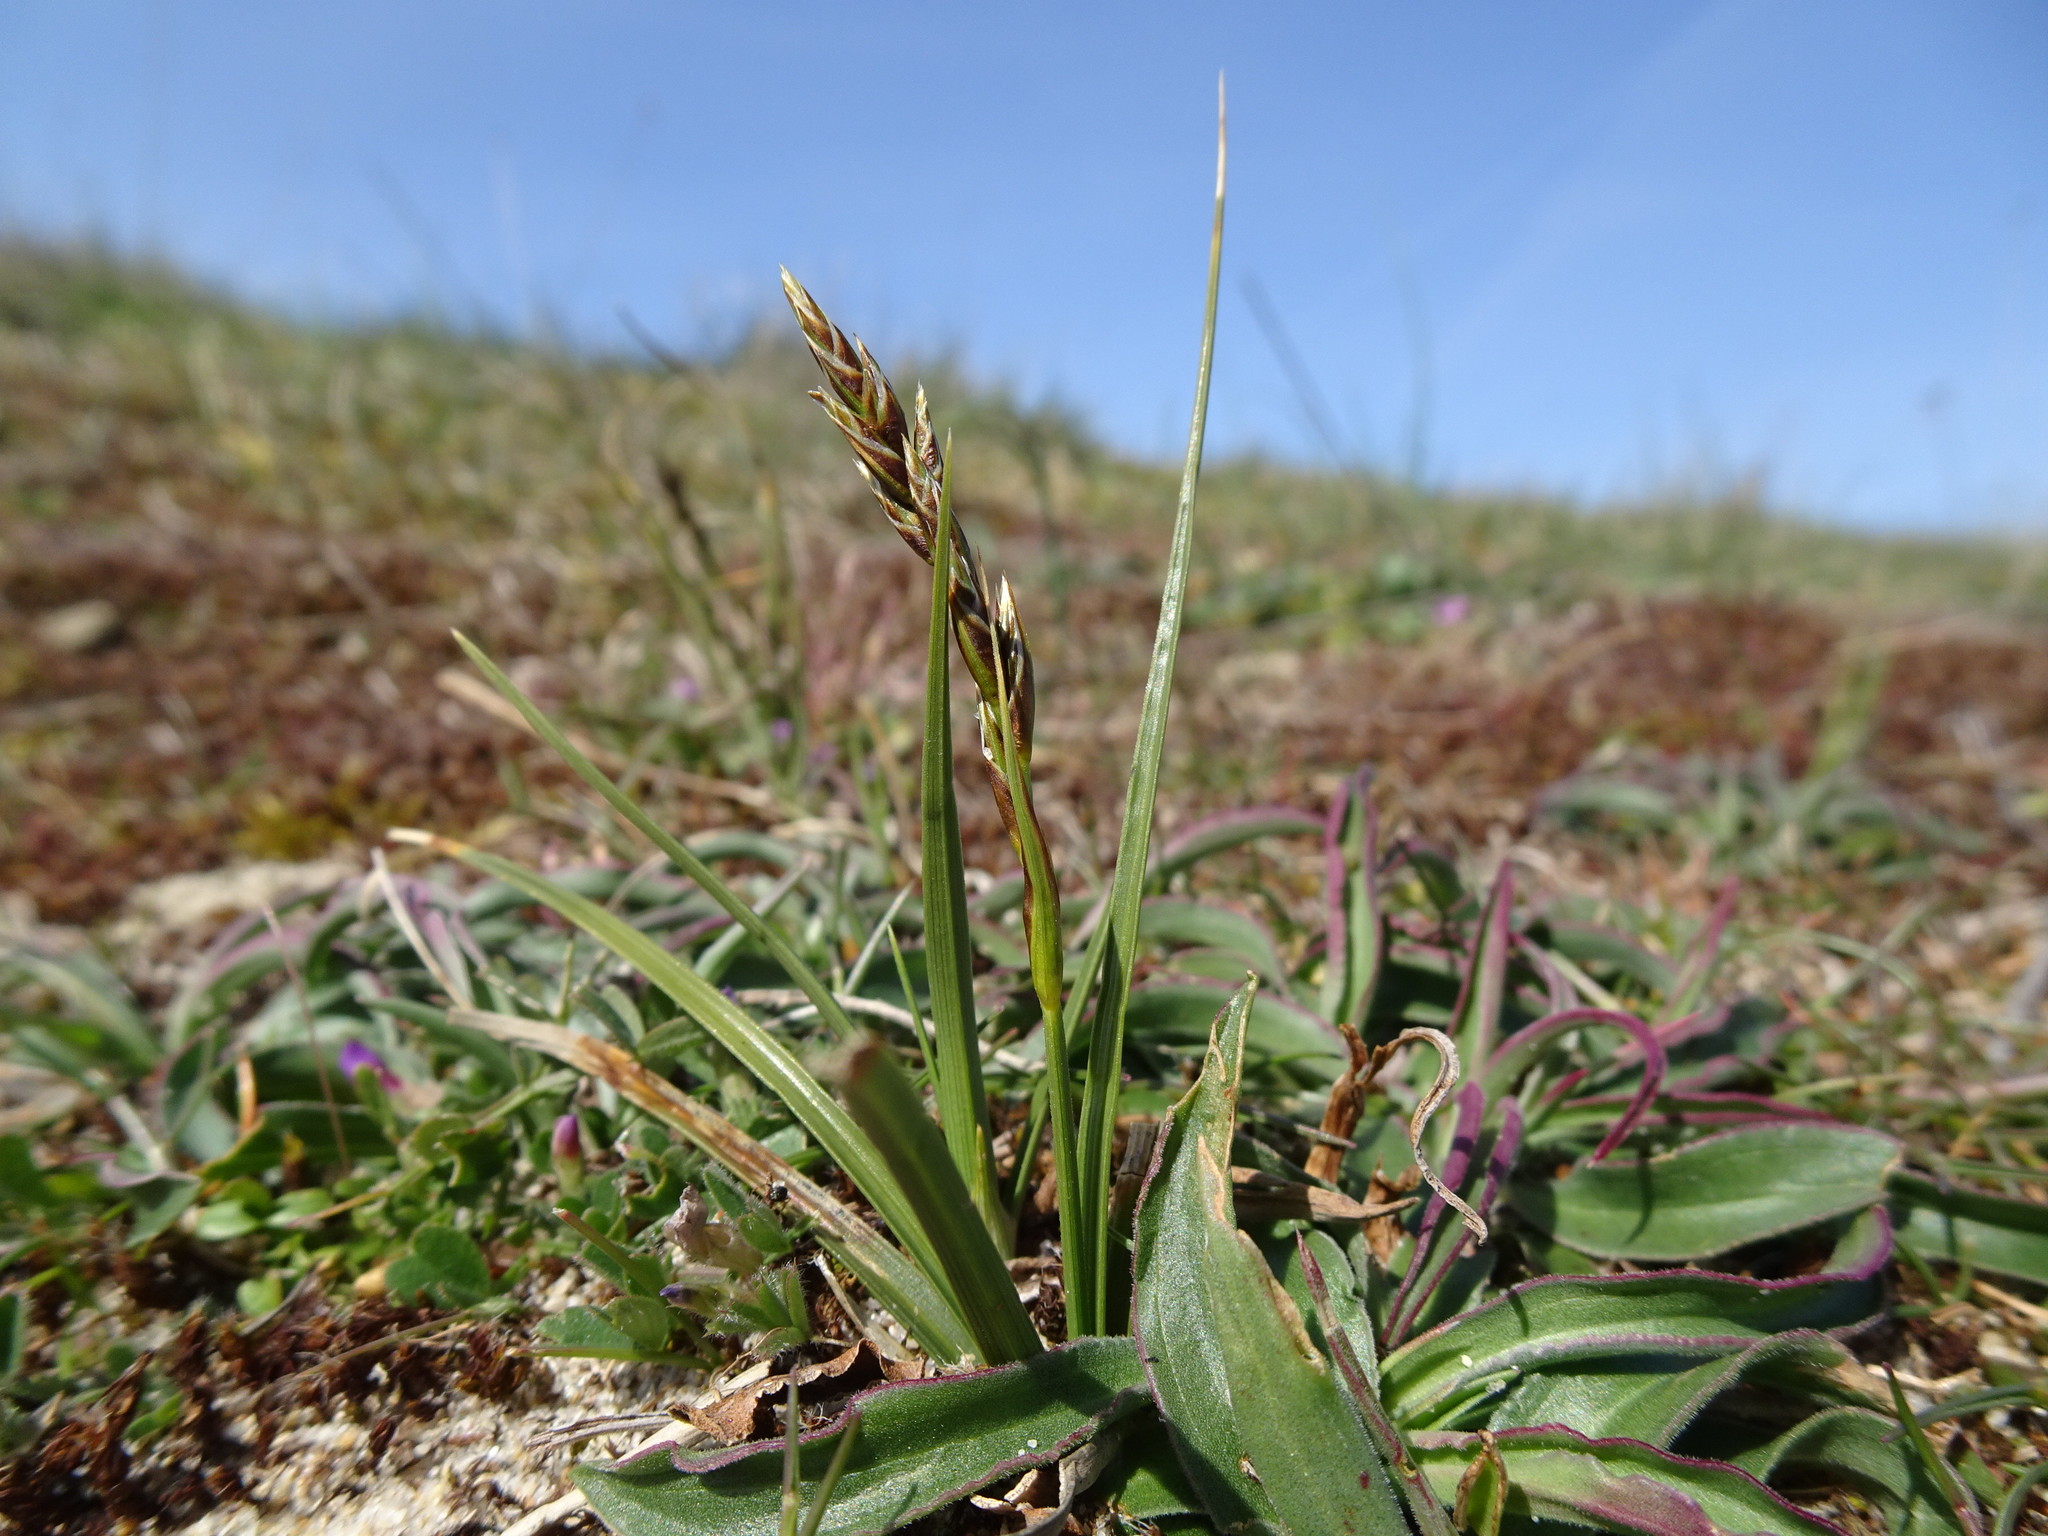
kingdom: Plantae
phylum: Tracheophyta
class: Liliopsida
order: Poales
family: Cyperaceae
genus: Carex
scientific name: Carex arenaria
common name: Sand sedge
